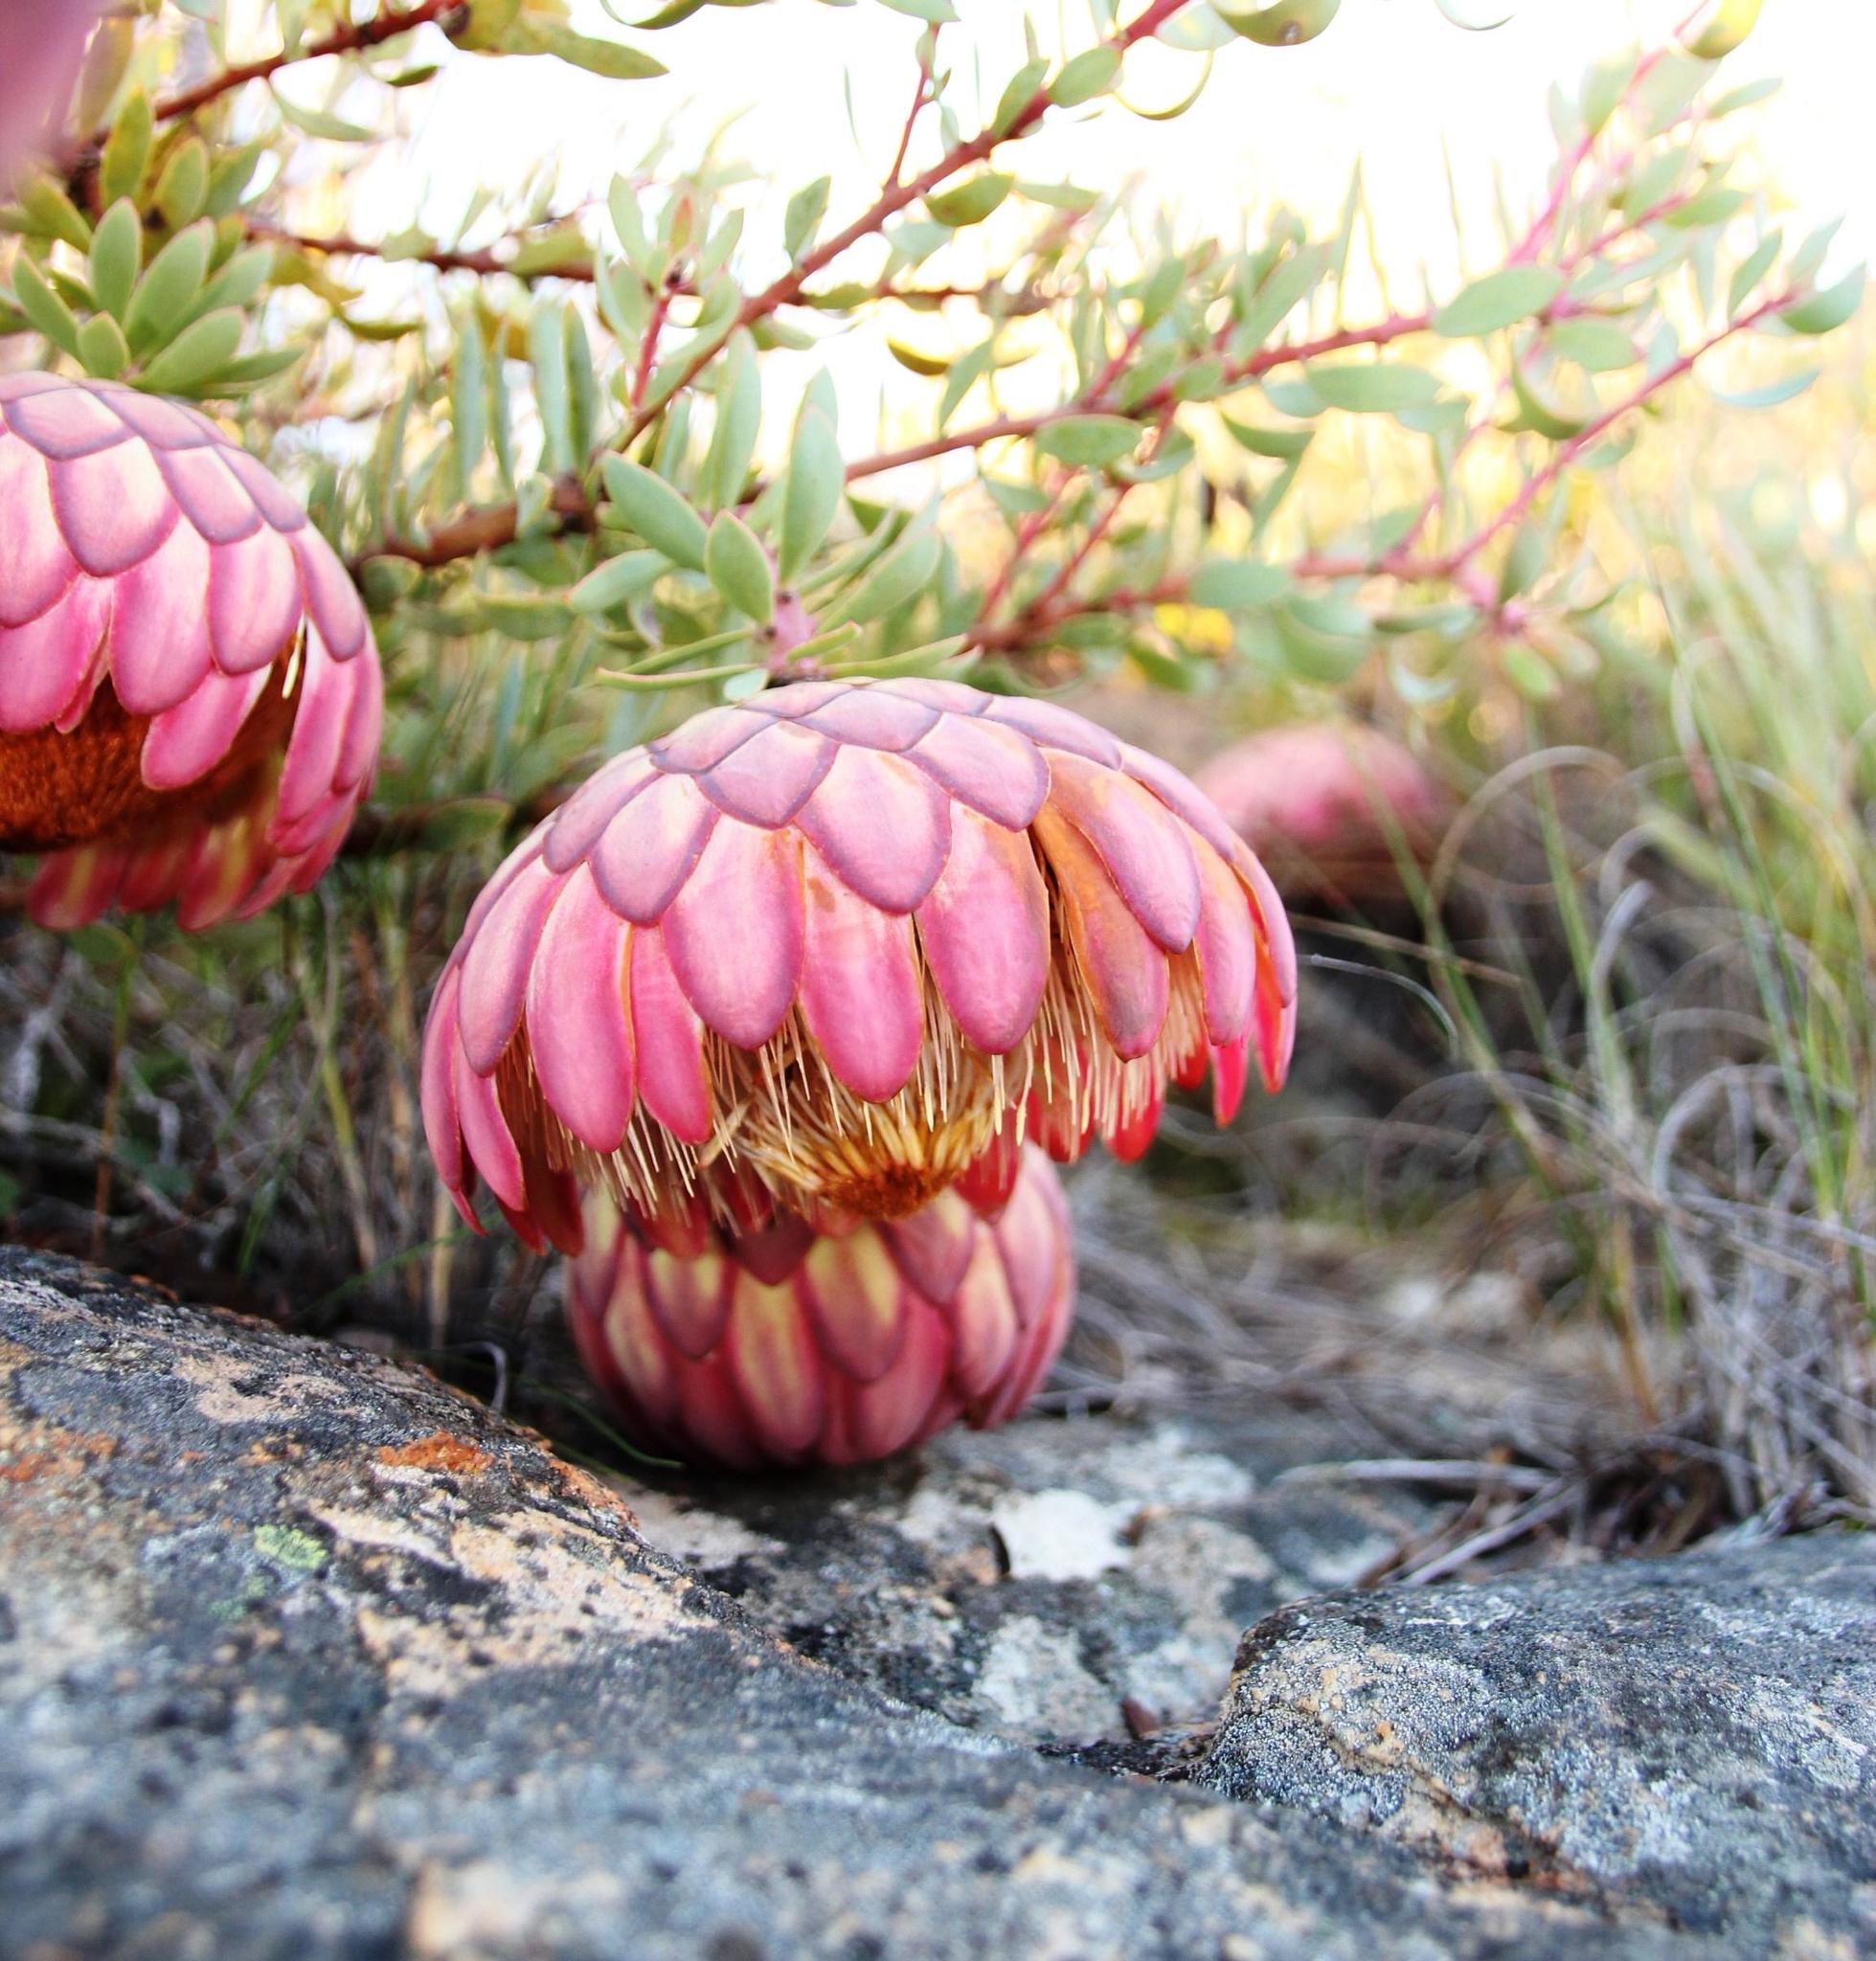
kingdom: Plantae
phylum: Tracheophyta
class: Magnoliopsida
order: Proteales
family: Proteaceae
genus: Protea
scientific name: Protea sulphurea
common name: Sulphur sugarbush
